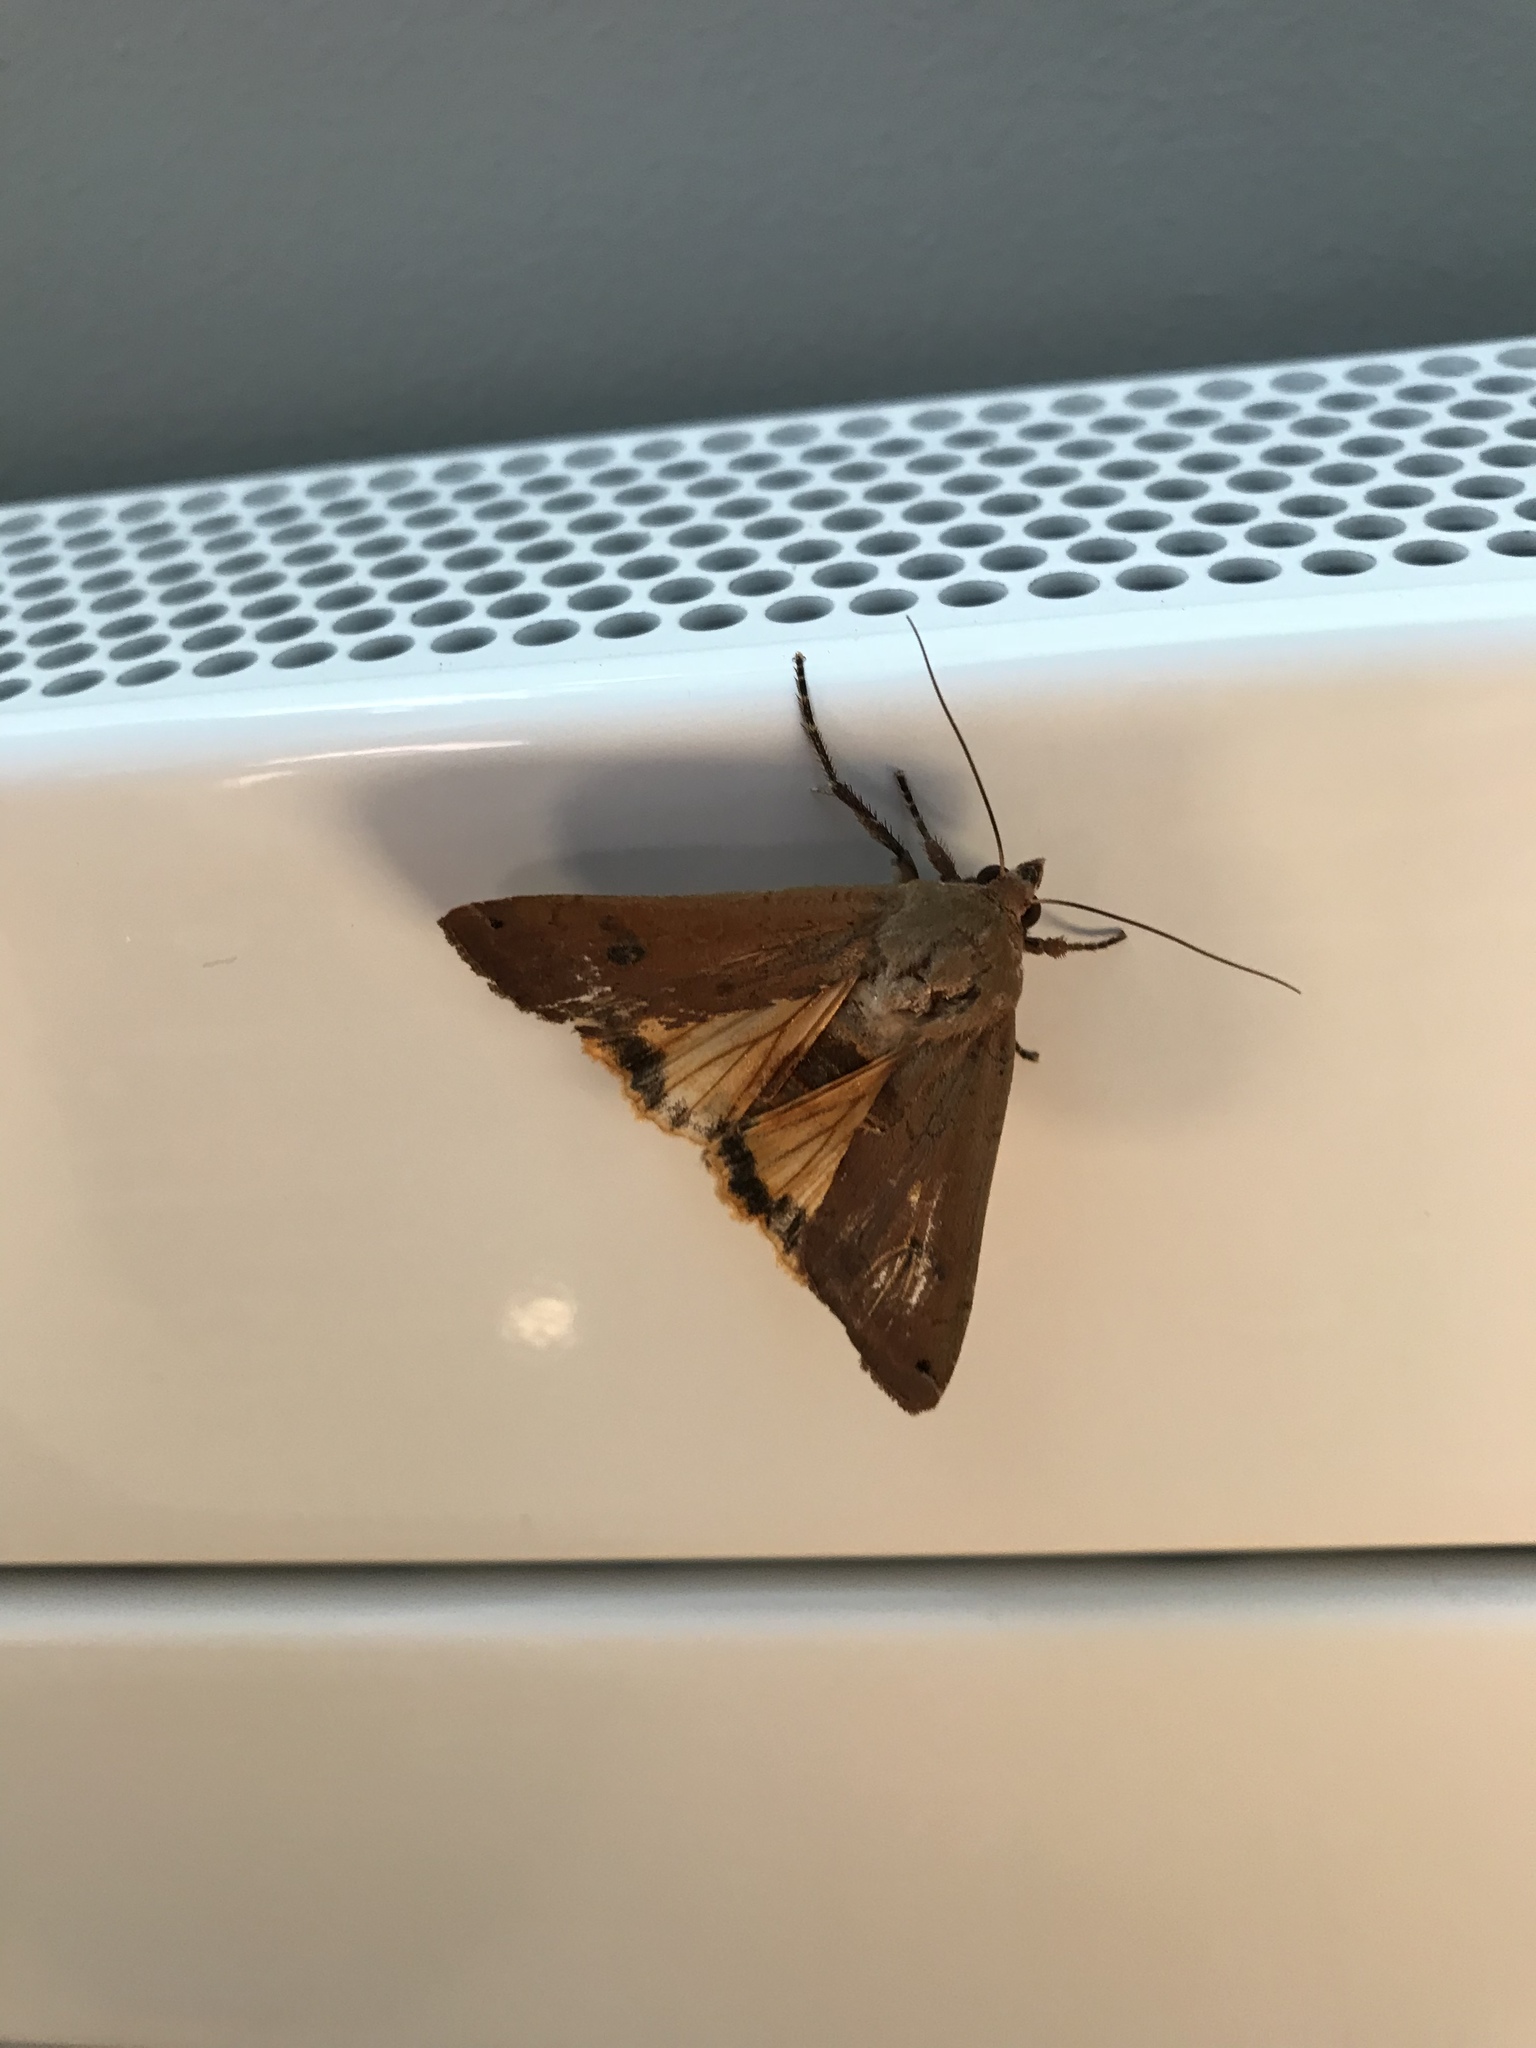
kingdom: Animalia
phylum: Arthropoda
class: Insecta
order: Lepidoptera
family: Noctuidae
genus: Noctua
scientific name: Noctua pronuba
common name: Large yellow underwing
